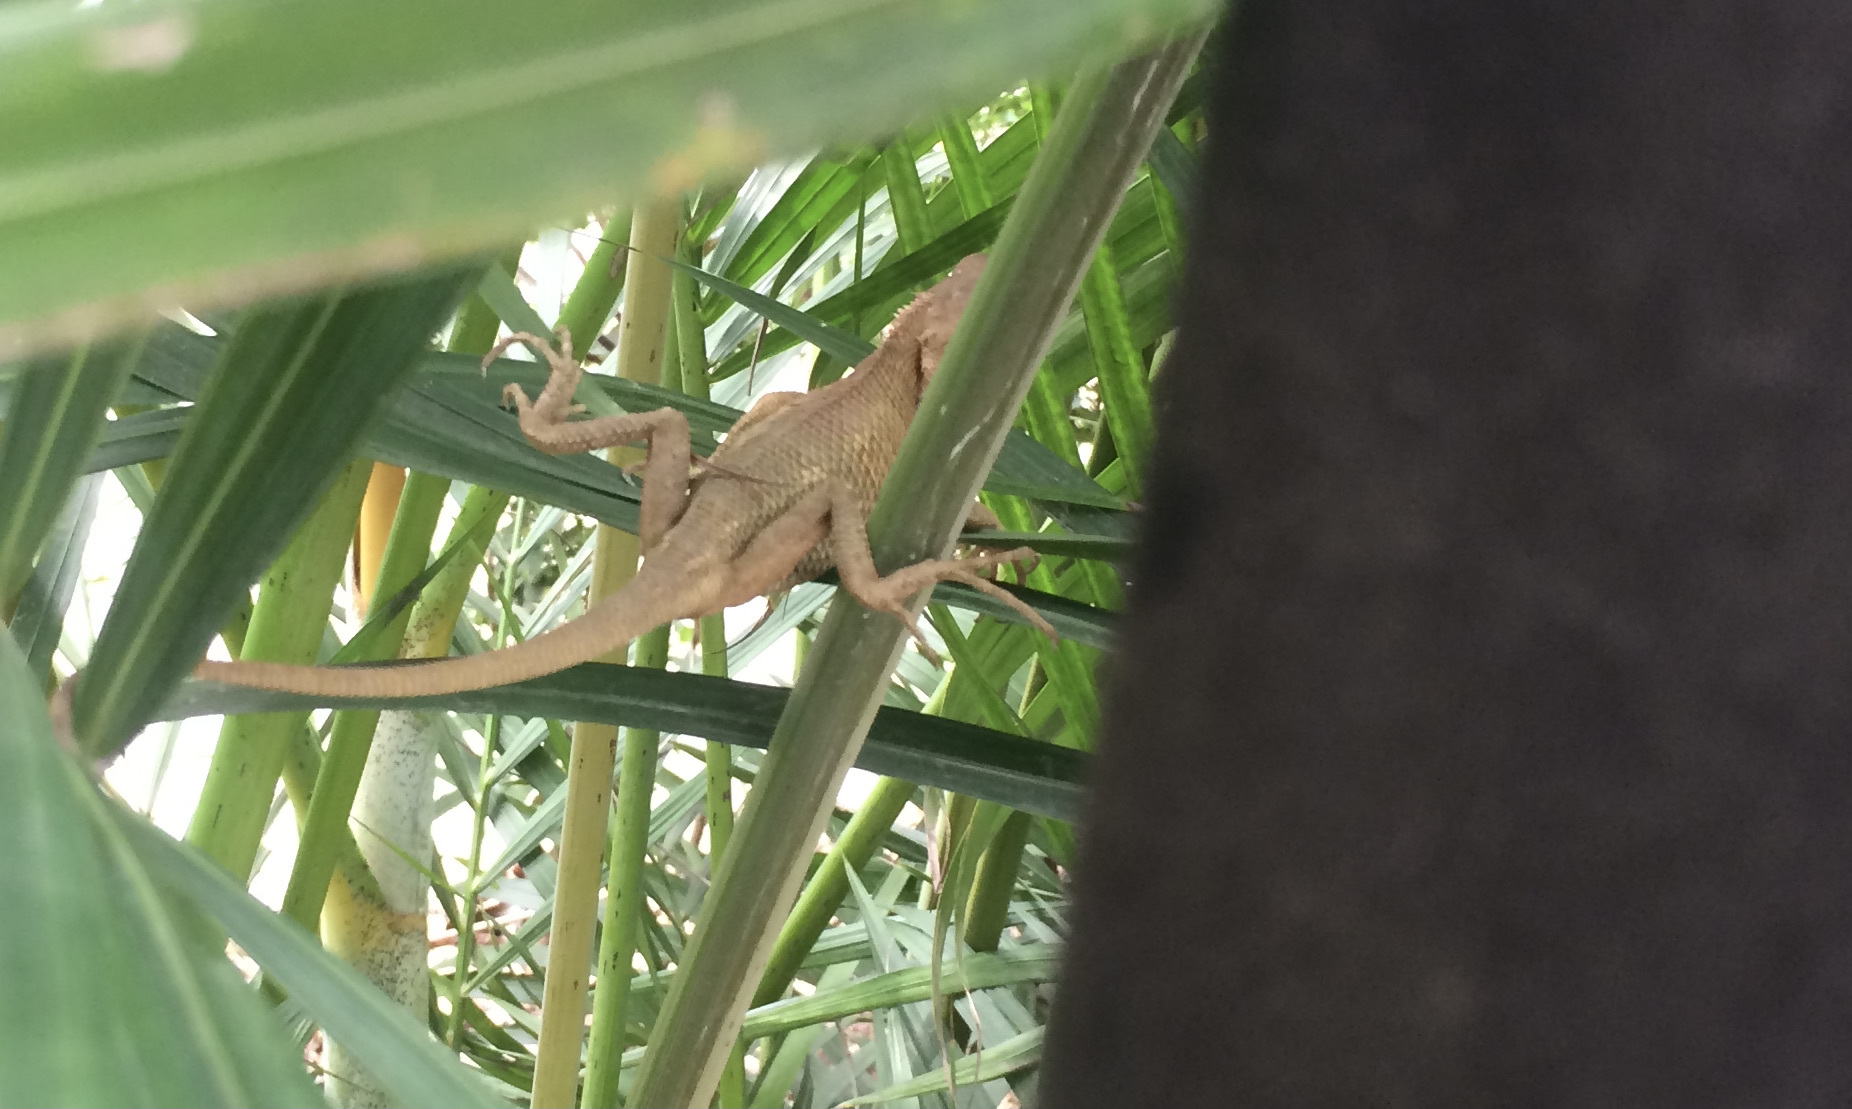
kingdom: Animalia
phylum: Chordata
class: Squamata
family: Agamidae
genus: Calotes
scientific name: Calotes versicolor
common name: Oriental garden lizard
